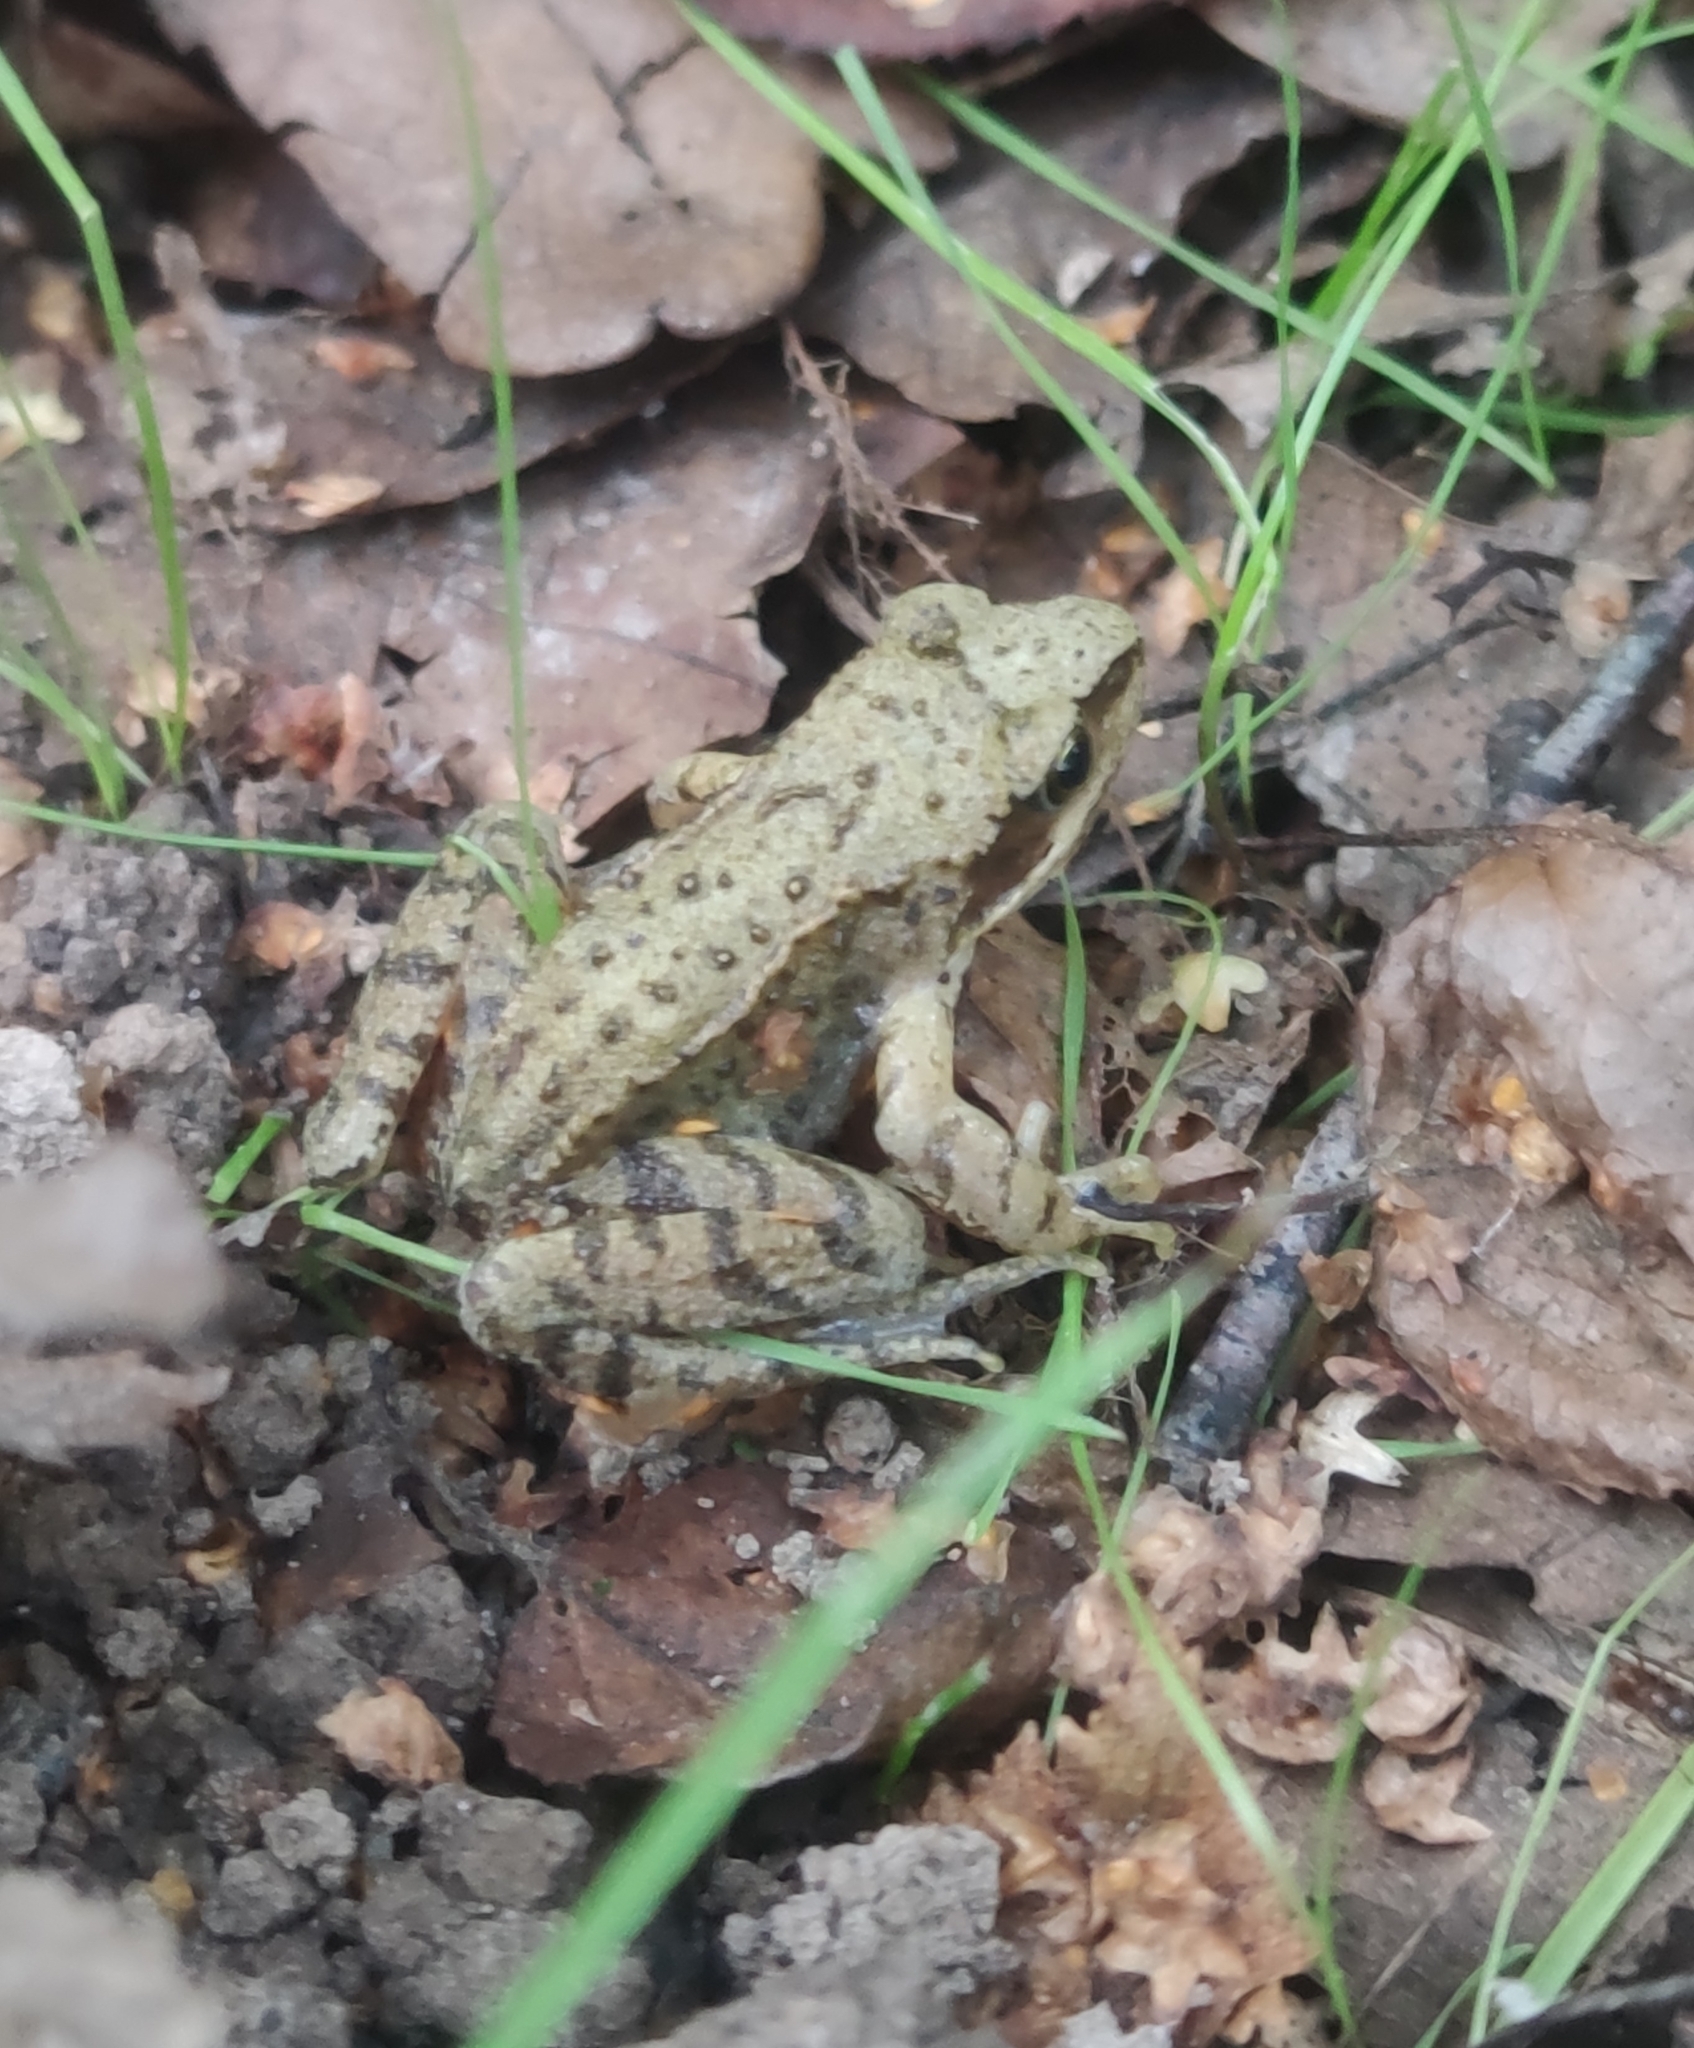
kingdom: Animalia
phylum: Chordata
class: Amphibia
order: Anura
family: Ranidae
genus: Rana
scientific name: Rana temporaria
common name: Common frog
